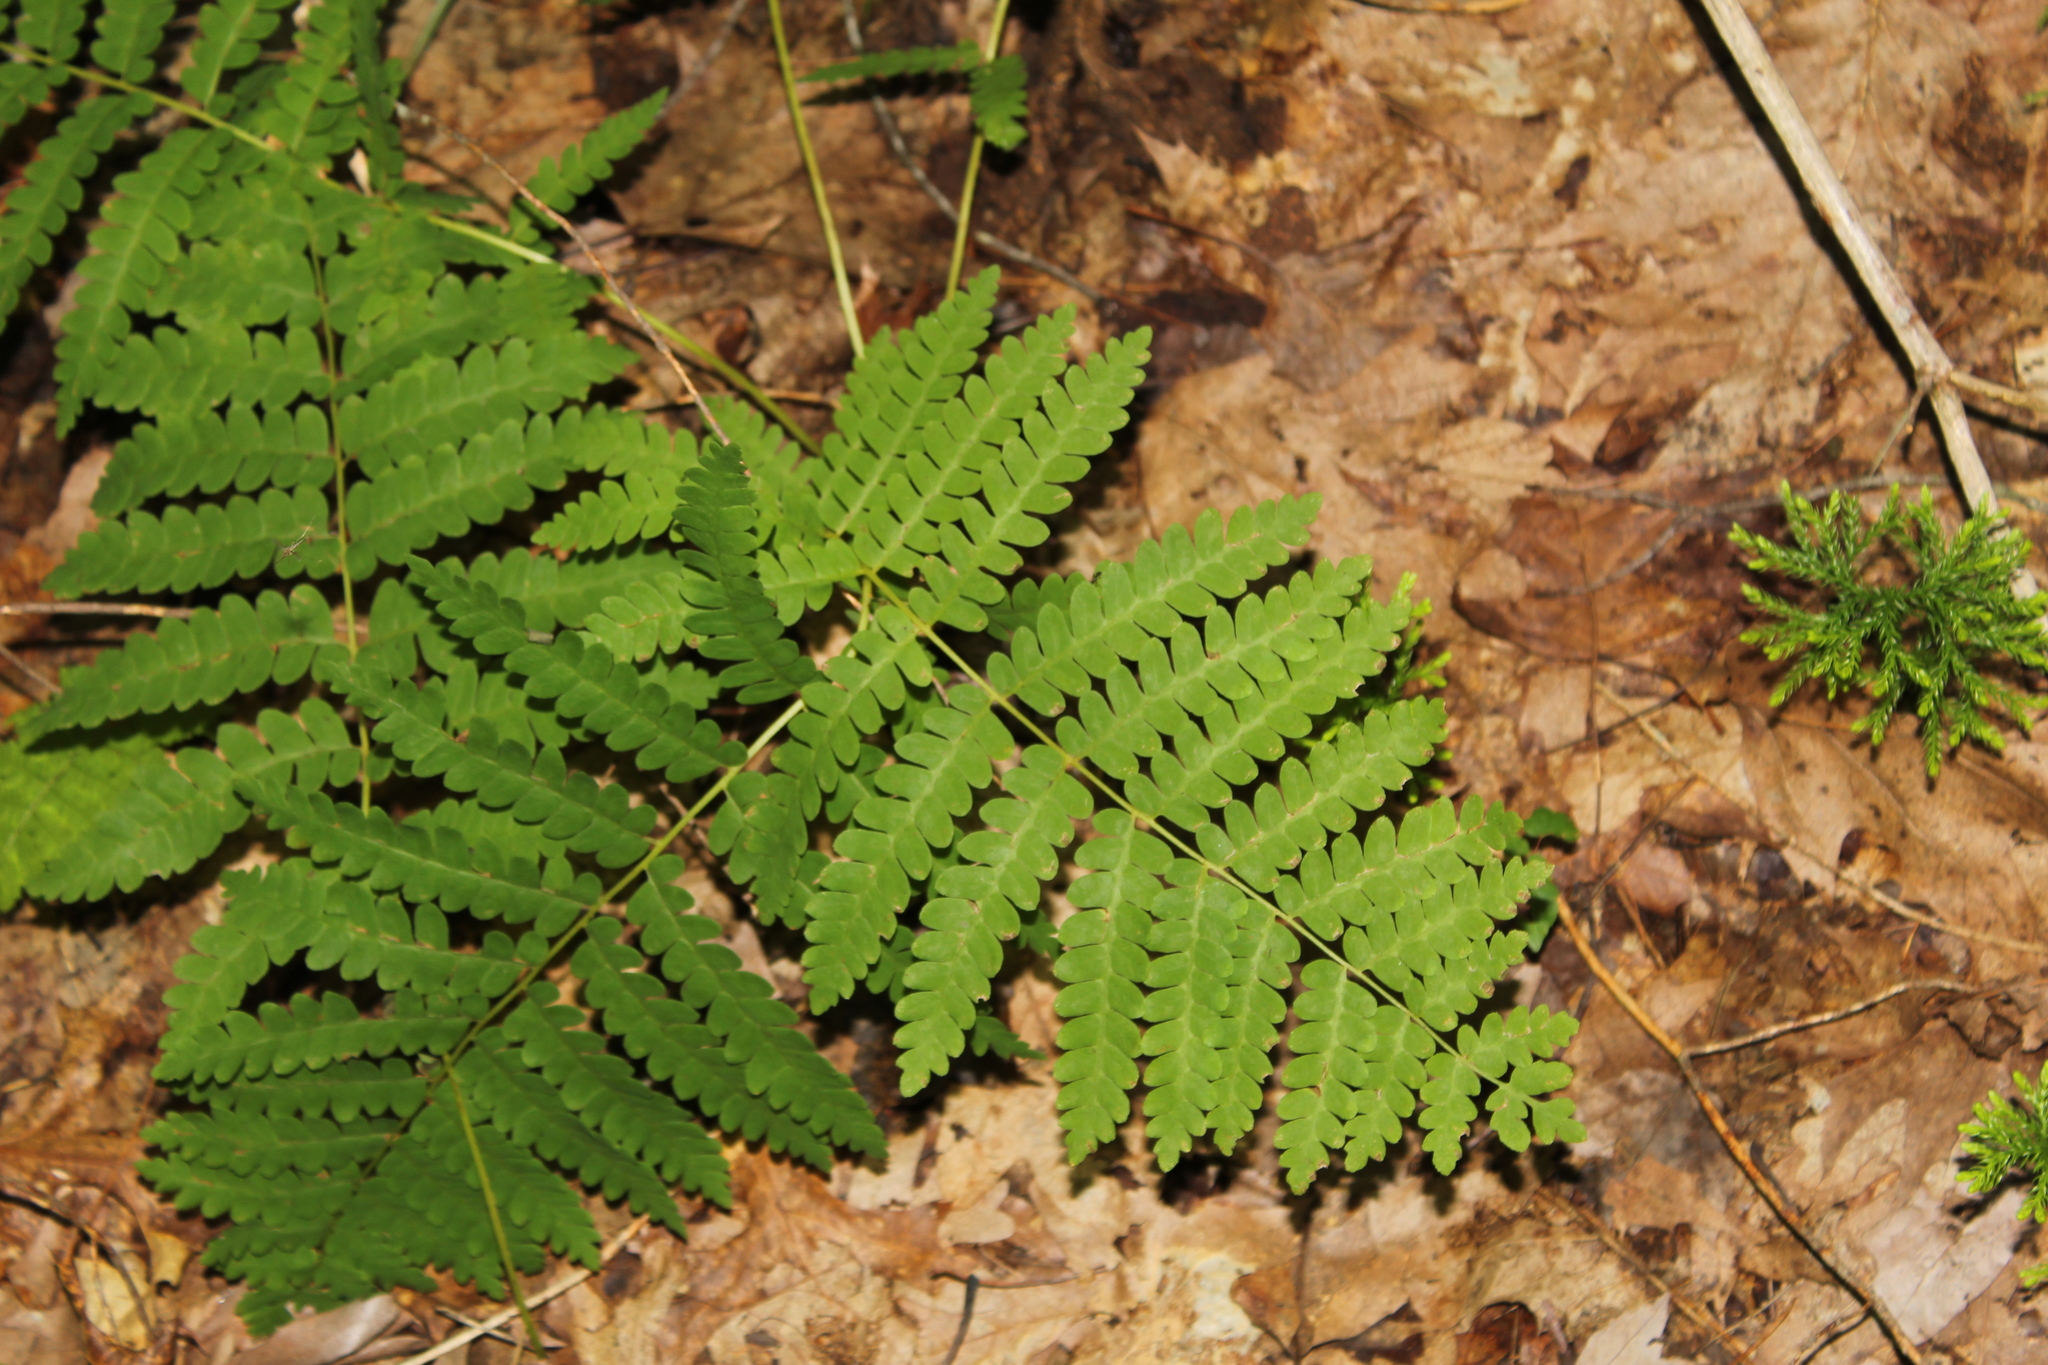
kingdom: Plantae
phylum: Tracheophyta
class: Polypodiopsida
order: Osmundales
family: Osmundaceae
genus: Claytosmunda
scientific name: Claytosmunda claytoniana
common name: Clayton's fern
